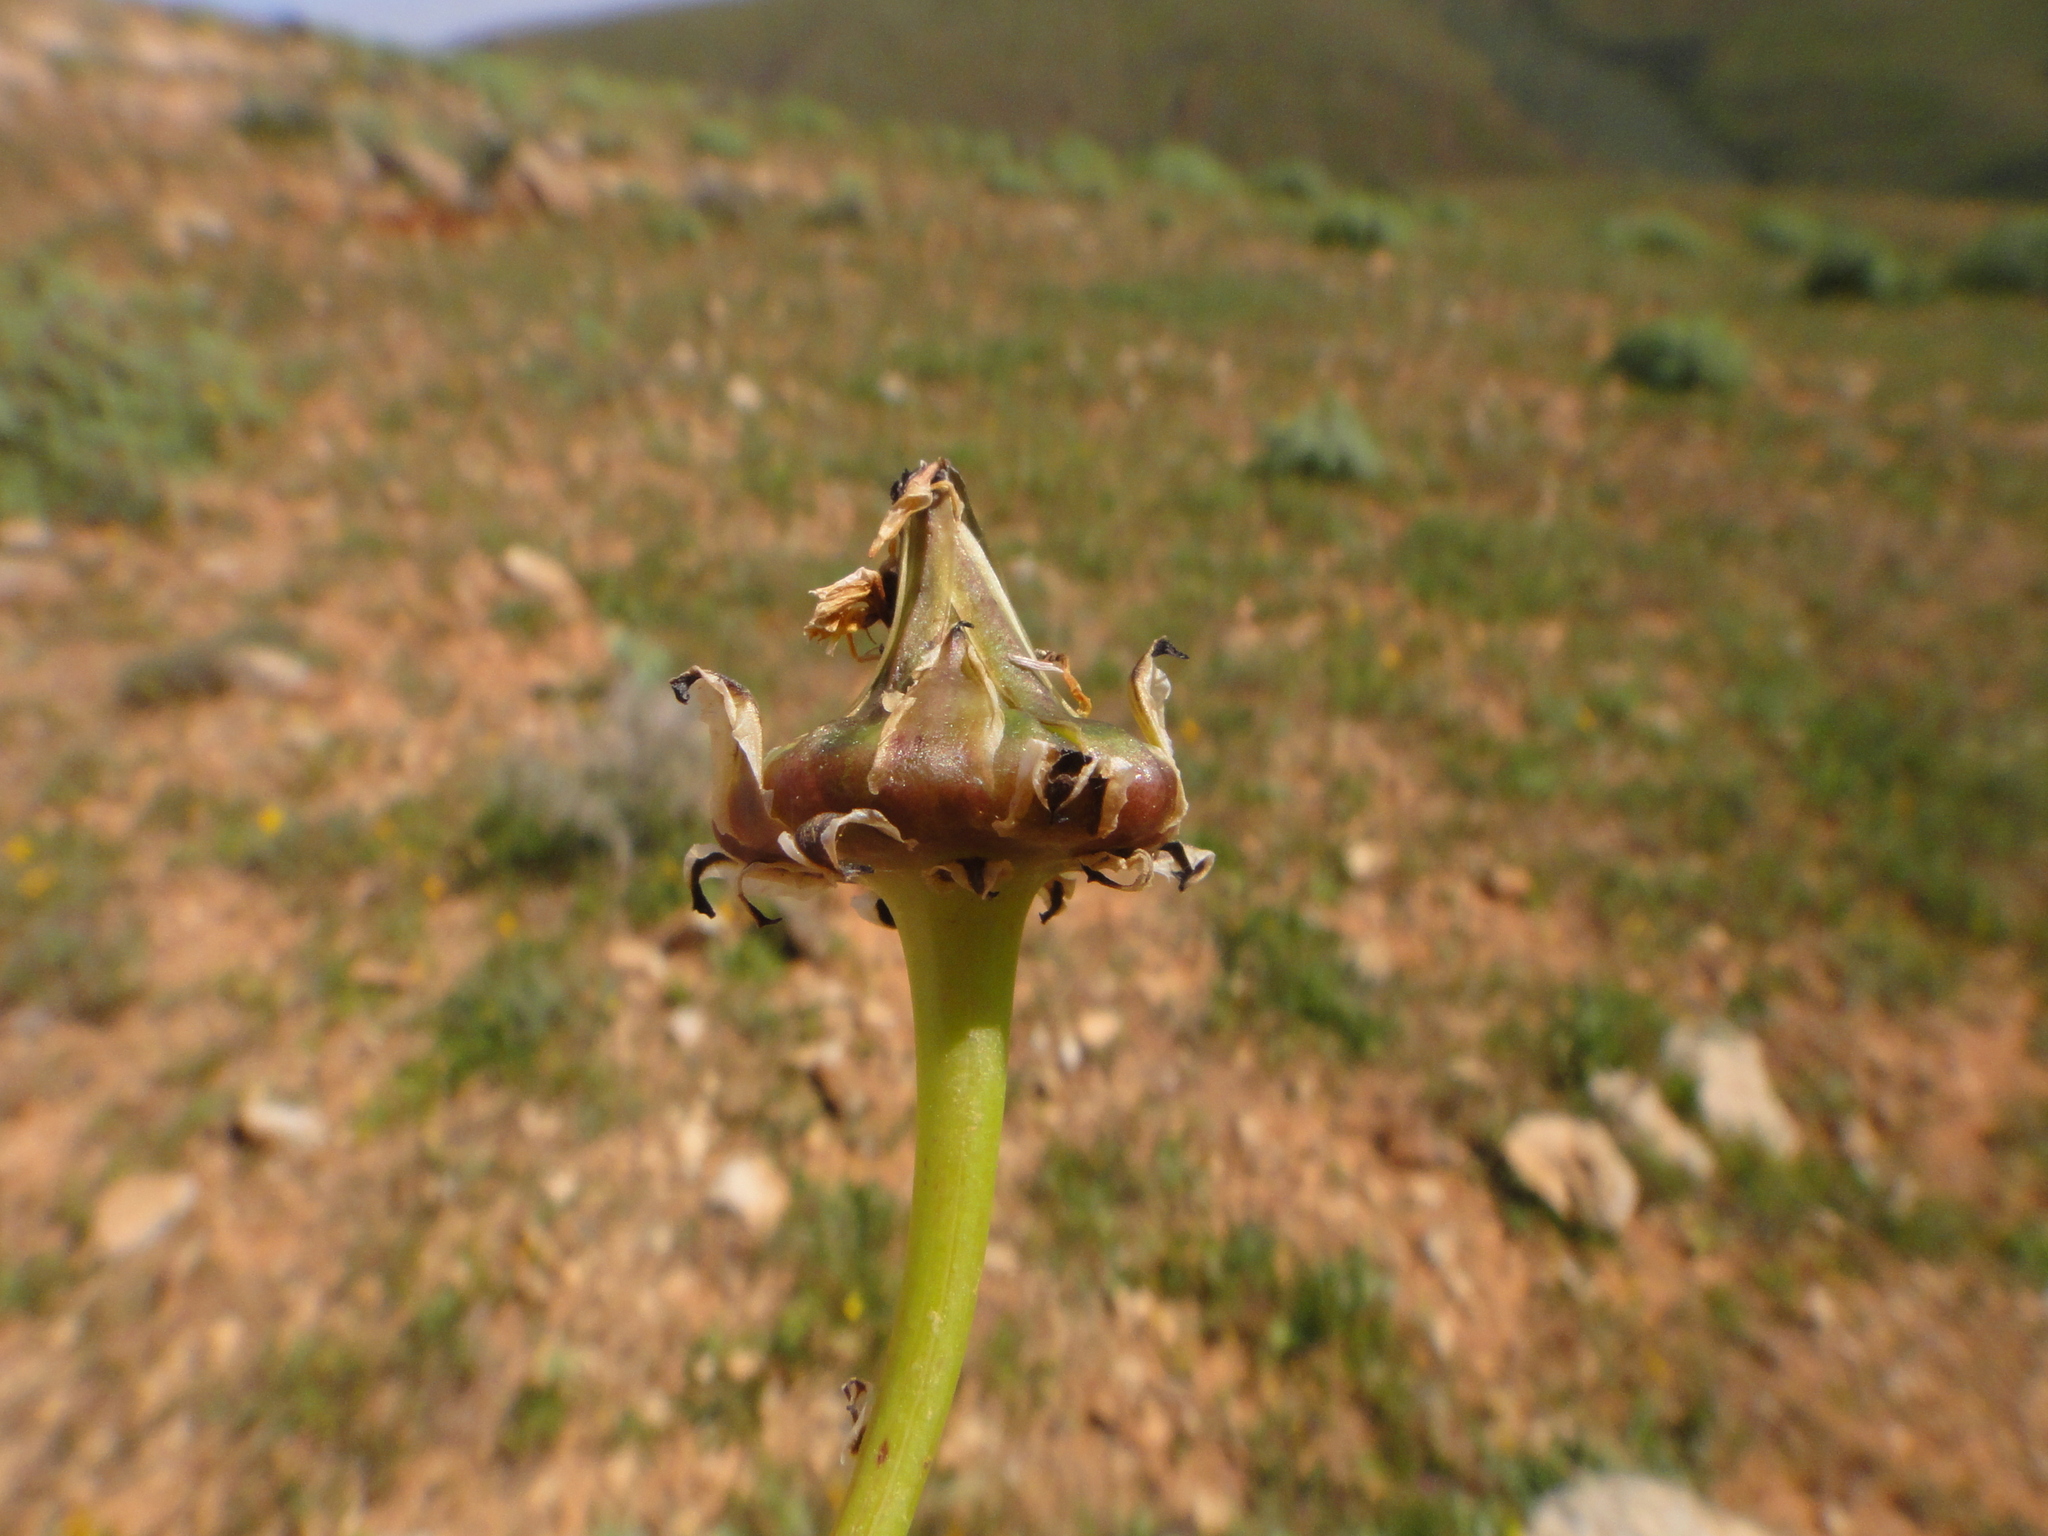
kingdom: Plantae
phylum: Tracheophyta
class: Magnoliopsida
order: Asterales
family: Asteraceae
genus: Reichardia
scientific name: Reichardia tingitana
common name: Reichardia
